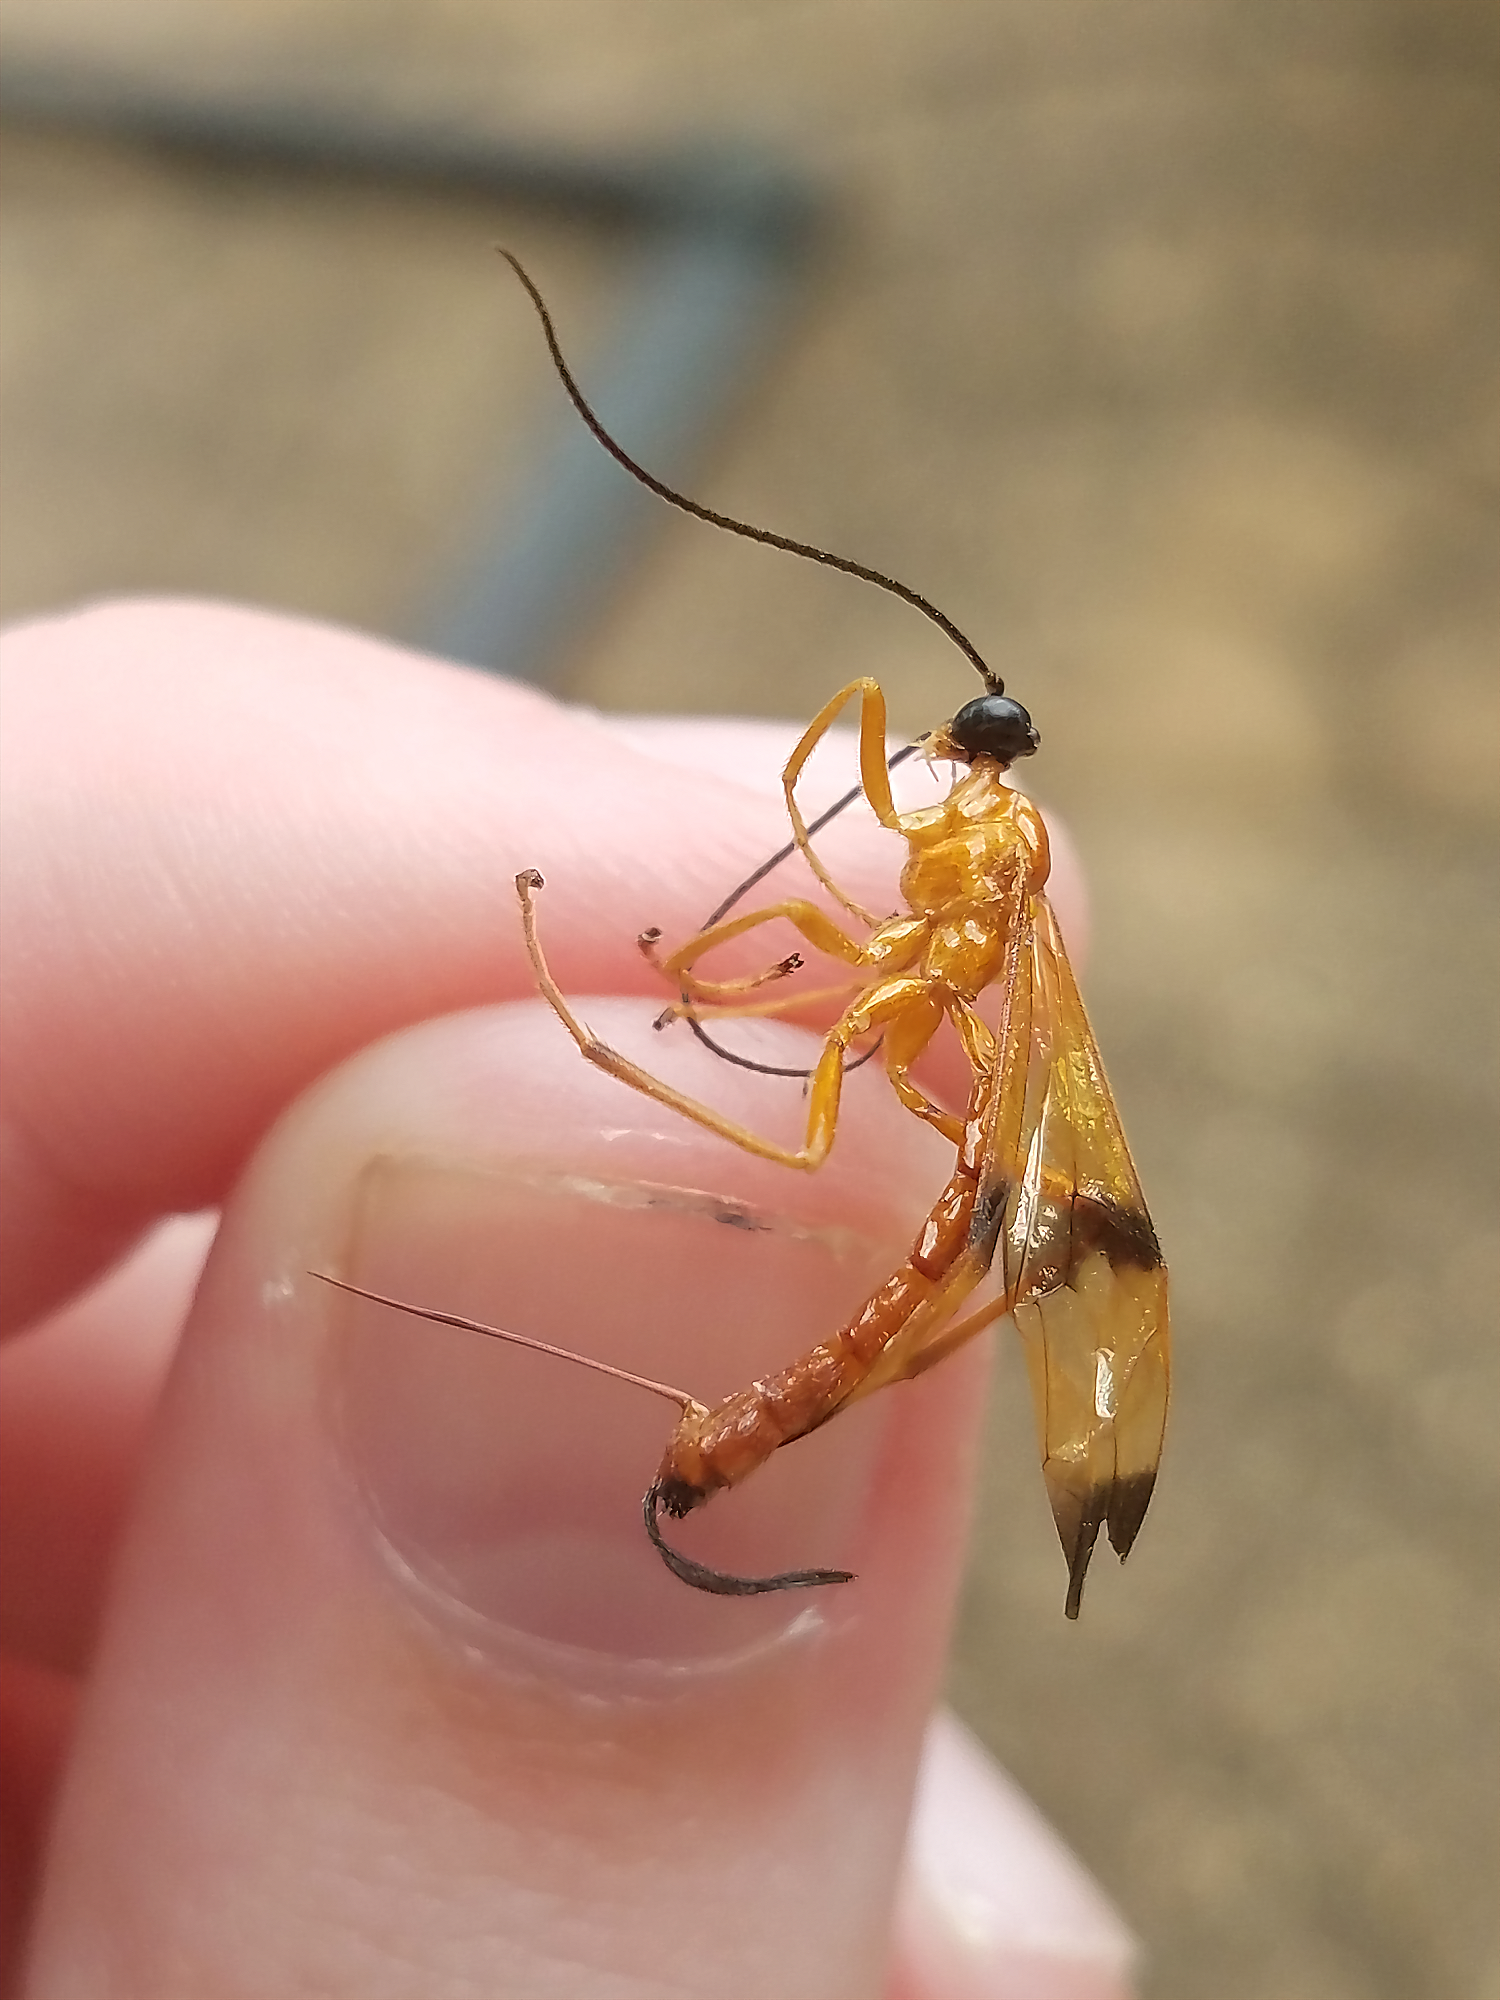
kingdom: Animalia
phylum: Arthropoda
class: Insecta
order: Hymenoptera
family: Ichneumonidae
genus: Acrotaphus
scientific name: Acrotaphus wiltii
